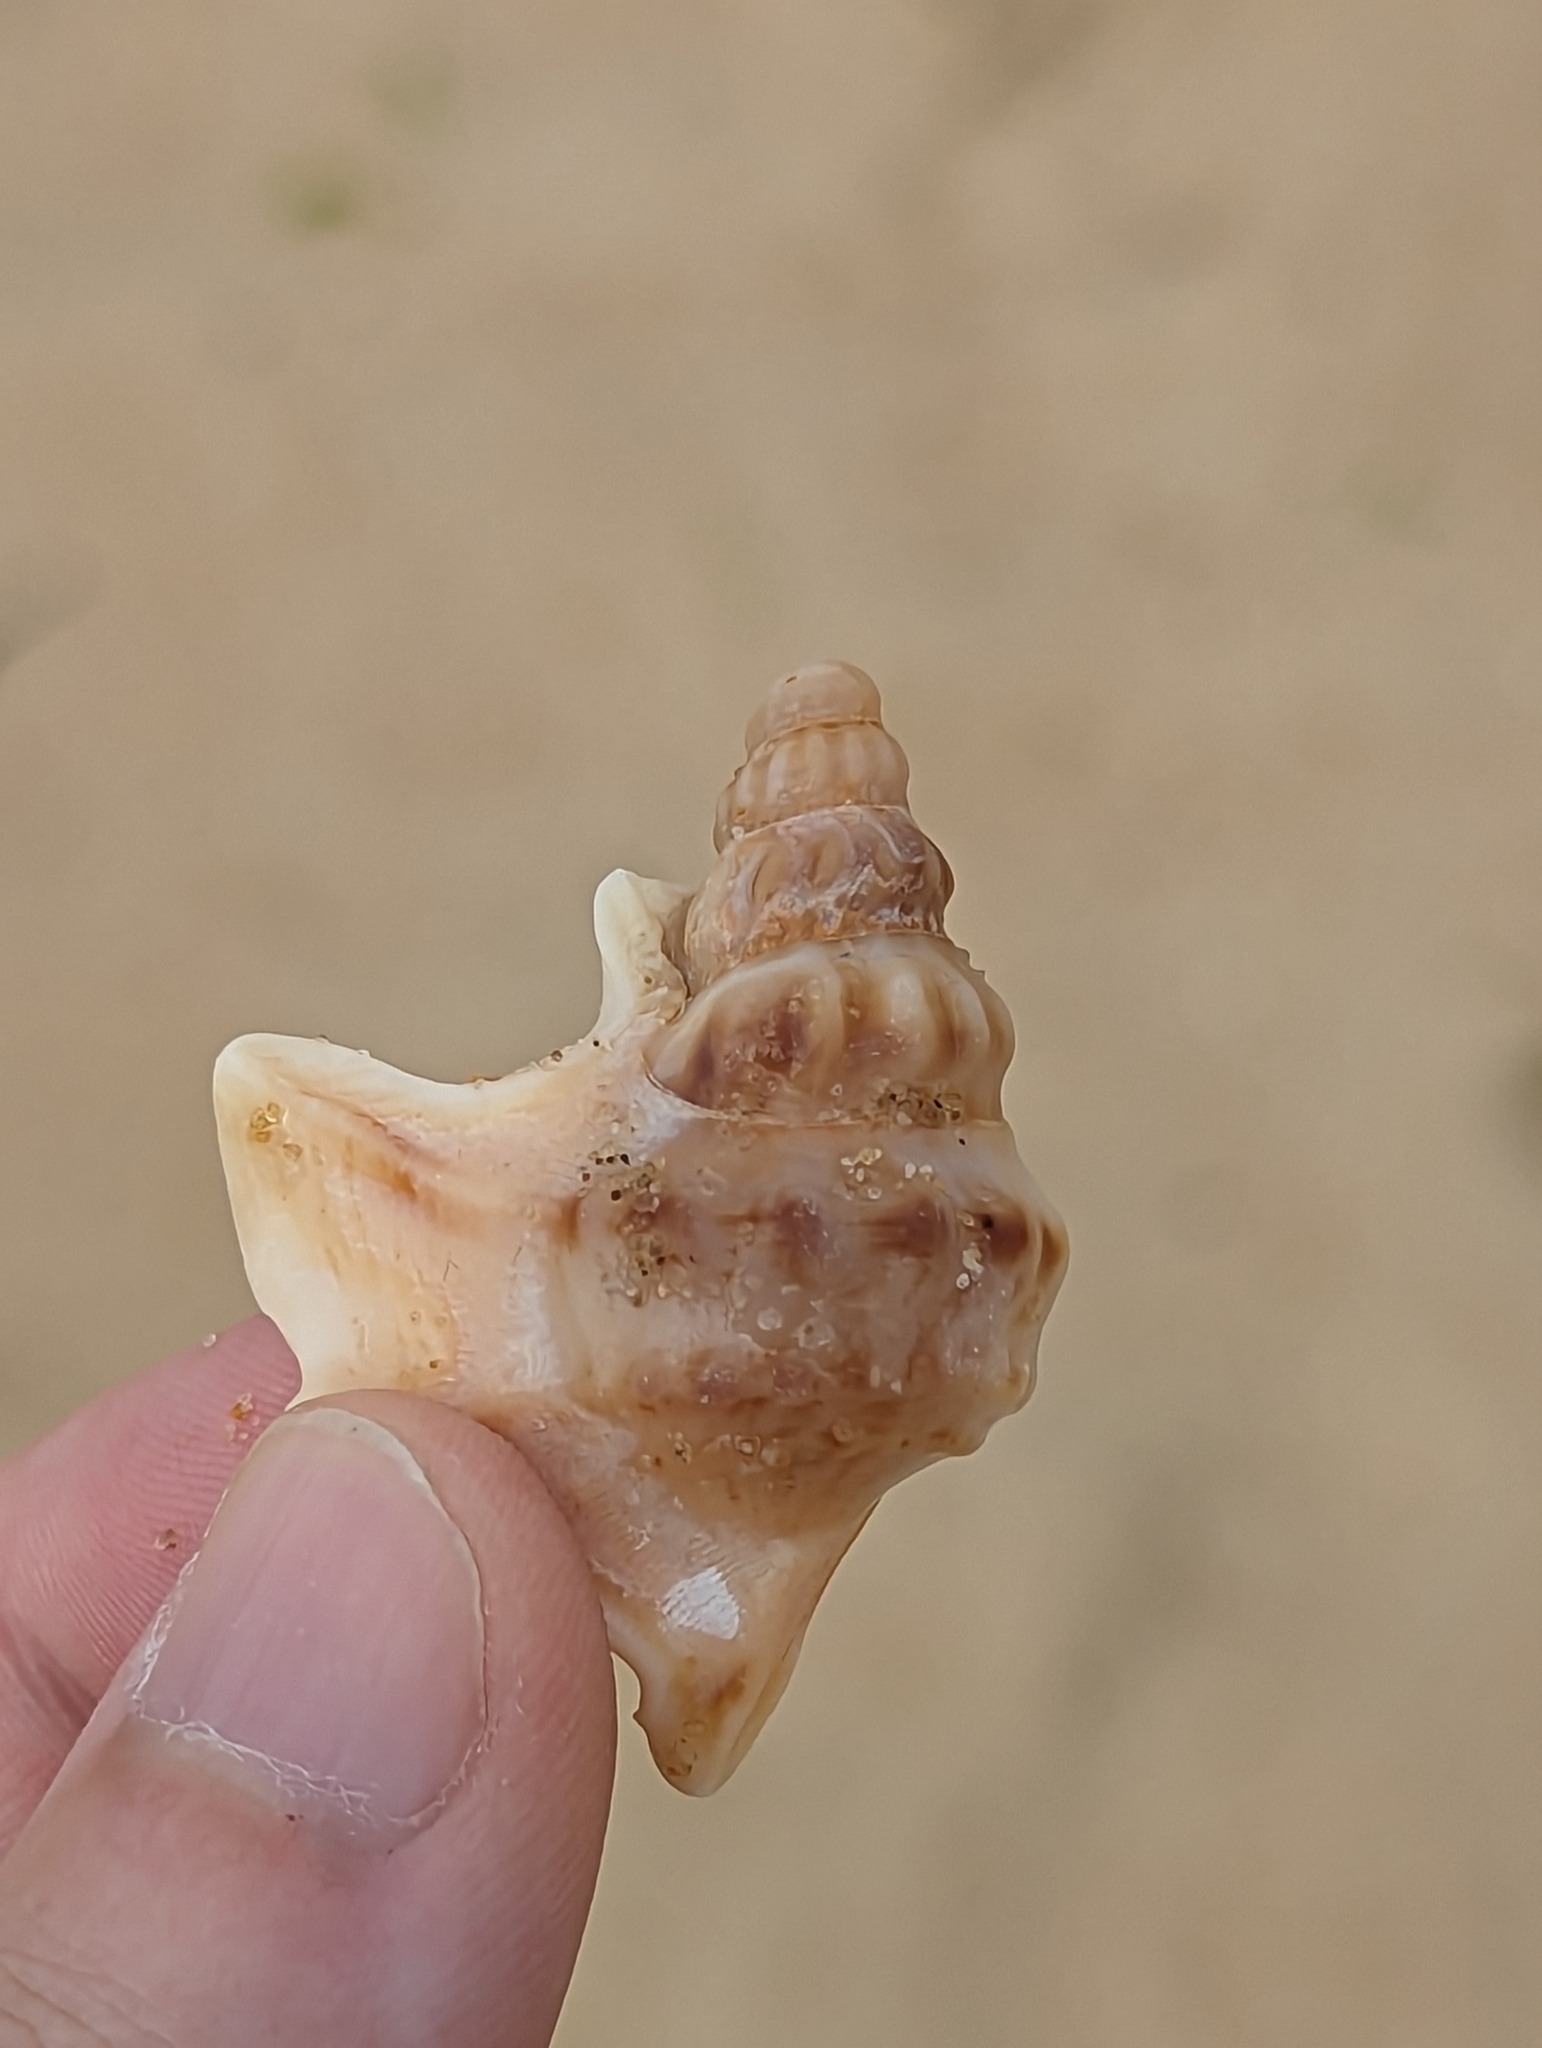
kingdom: Animalia
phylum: Mollusca
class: Gastropoda
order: Littorinimorpha
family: Aporrhaidae
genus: Aporrhais
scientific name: Aporrhais pespelecani
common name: Common pelican’s foot
